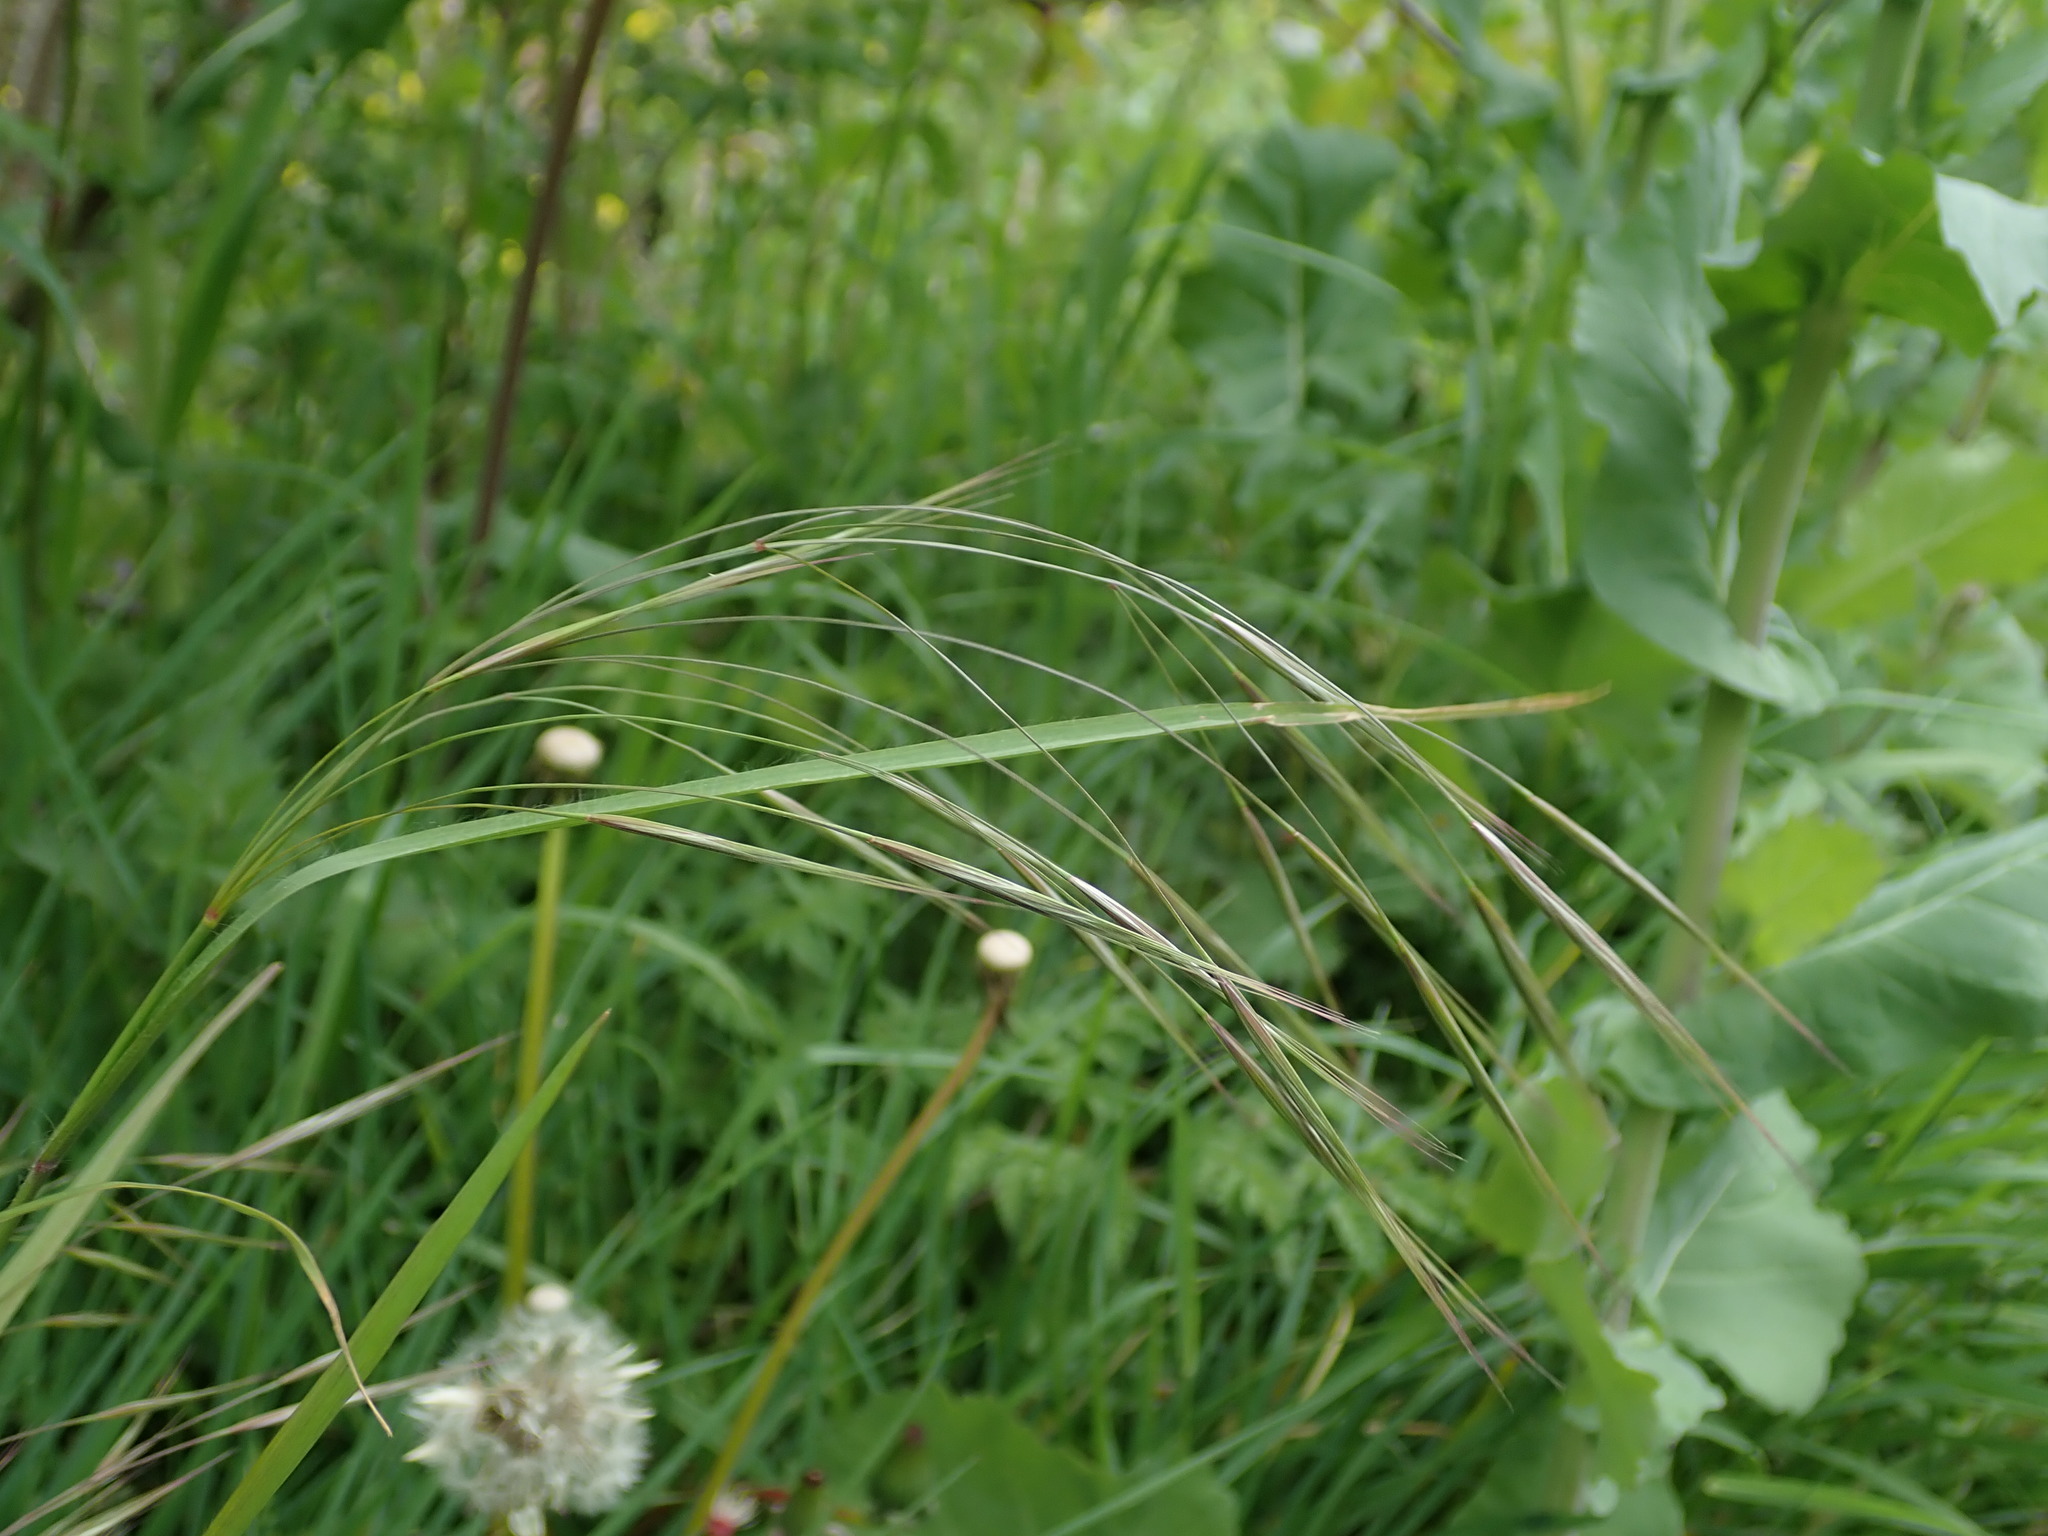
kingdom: Plantae
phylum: Tracheophyta
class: Liliopsida
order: Poales
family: Poaceae
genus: Bromus
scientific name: Bromus sterilis
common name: Poverty brome
